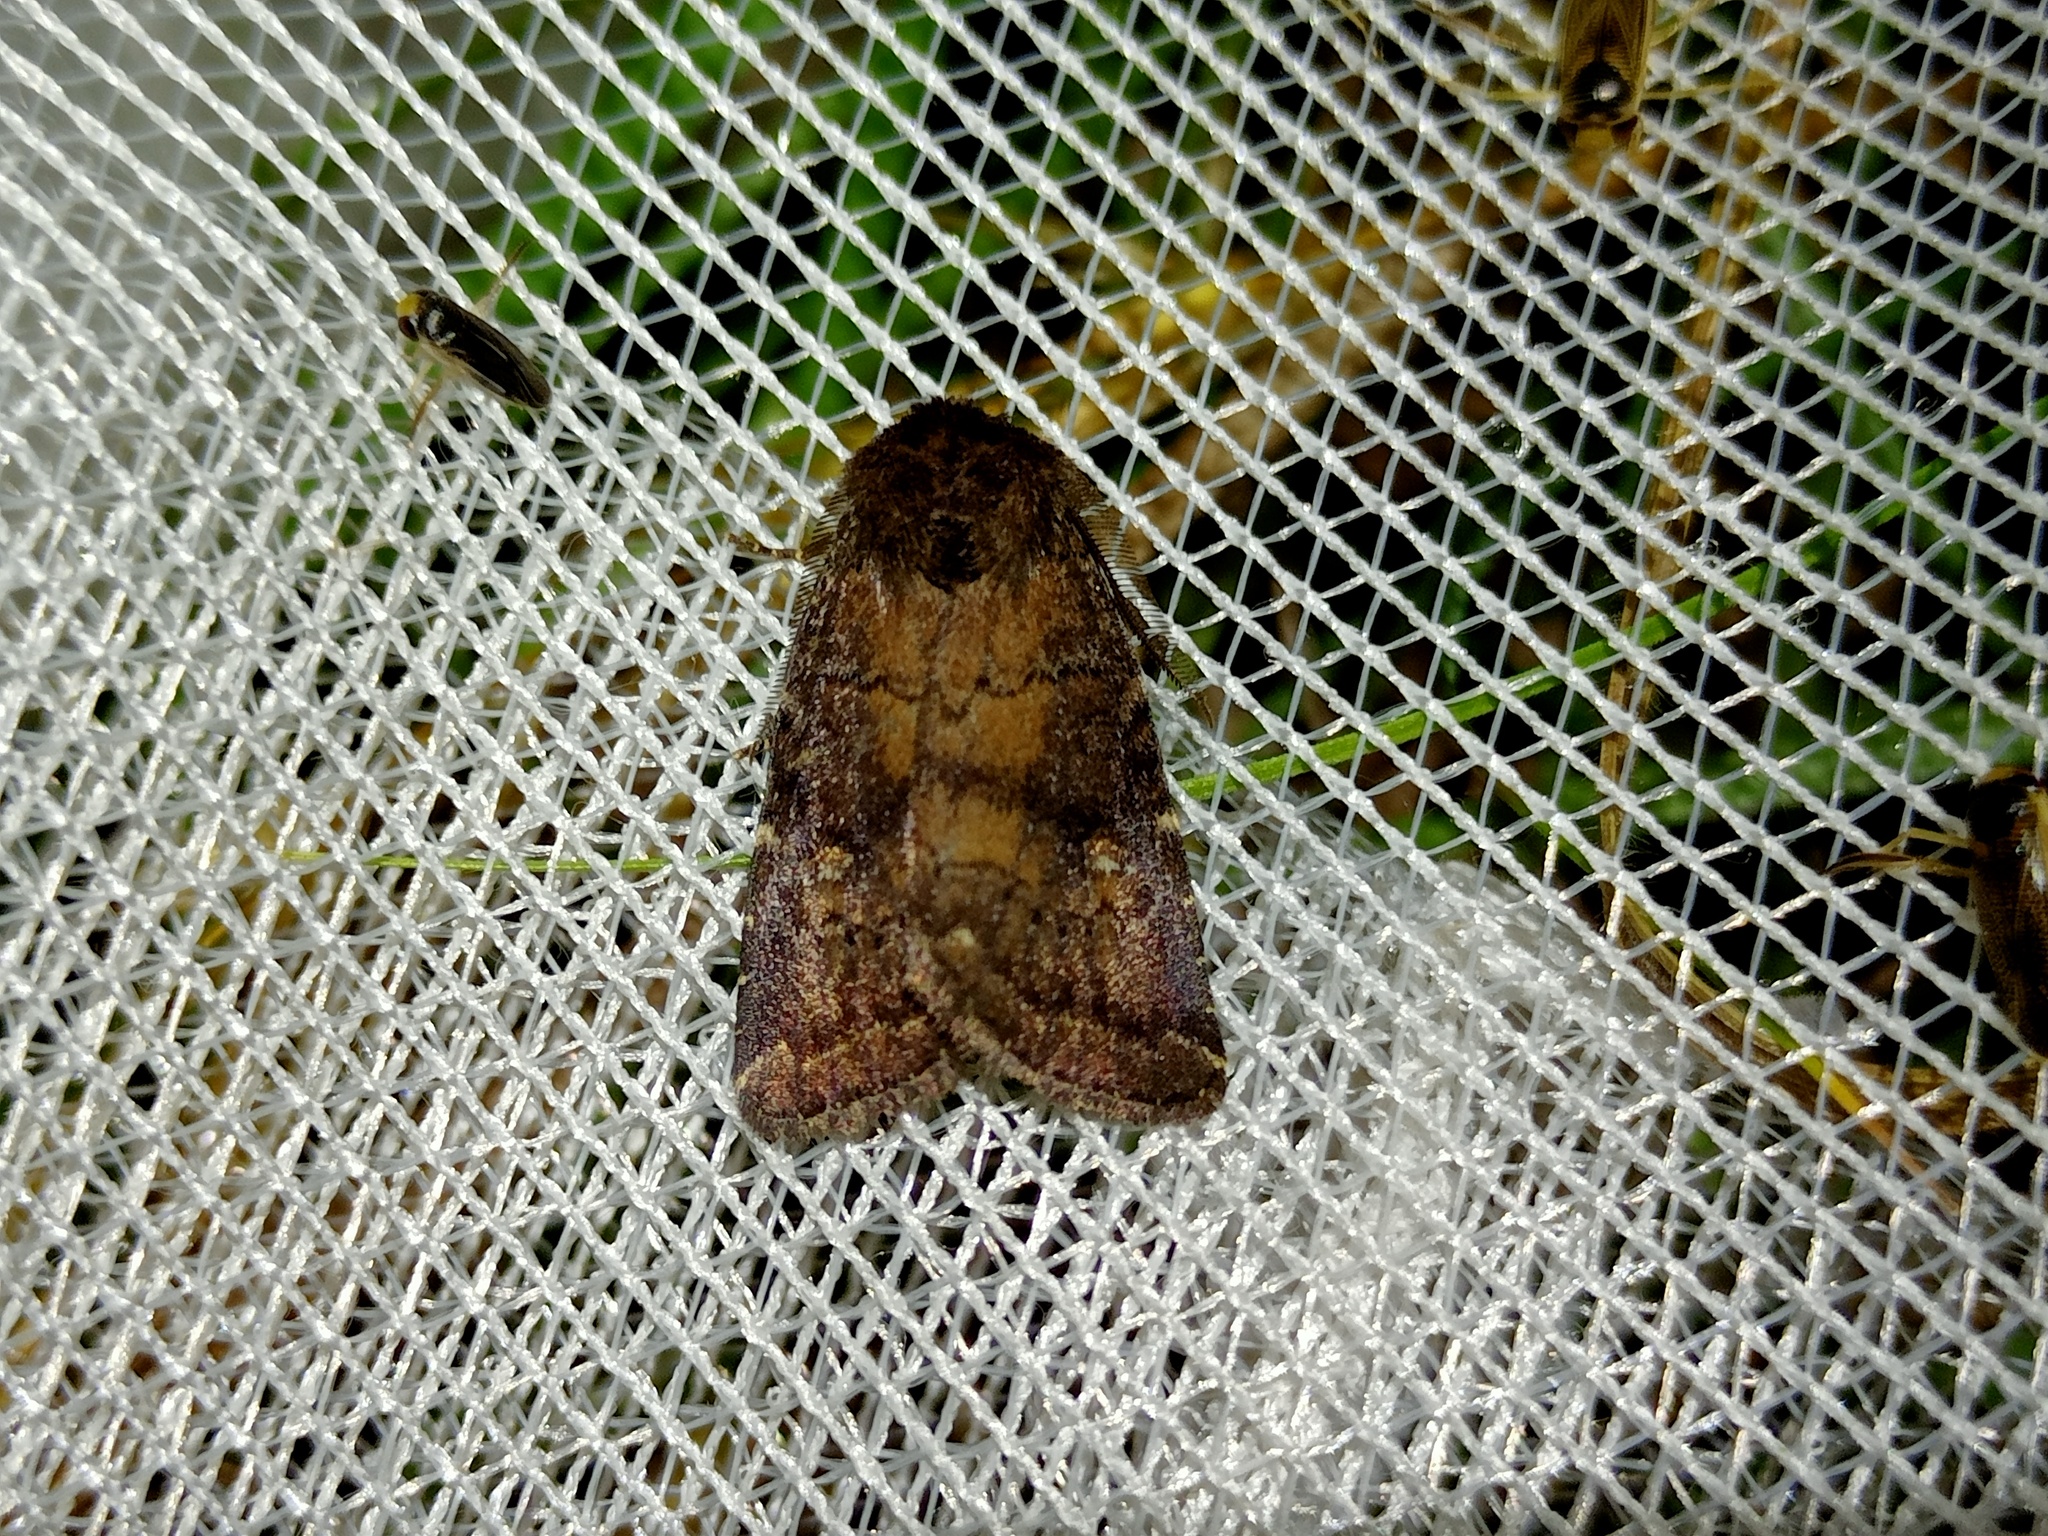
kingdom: Animalia
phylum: Arthropoda
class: Insecta
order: Lepidoptera
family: Noctuidae
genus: Charanyca
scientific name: Charanyca ferruginea
